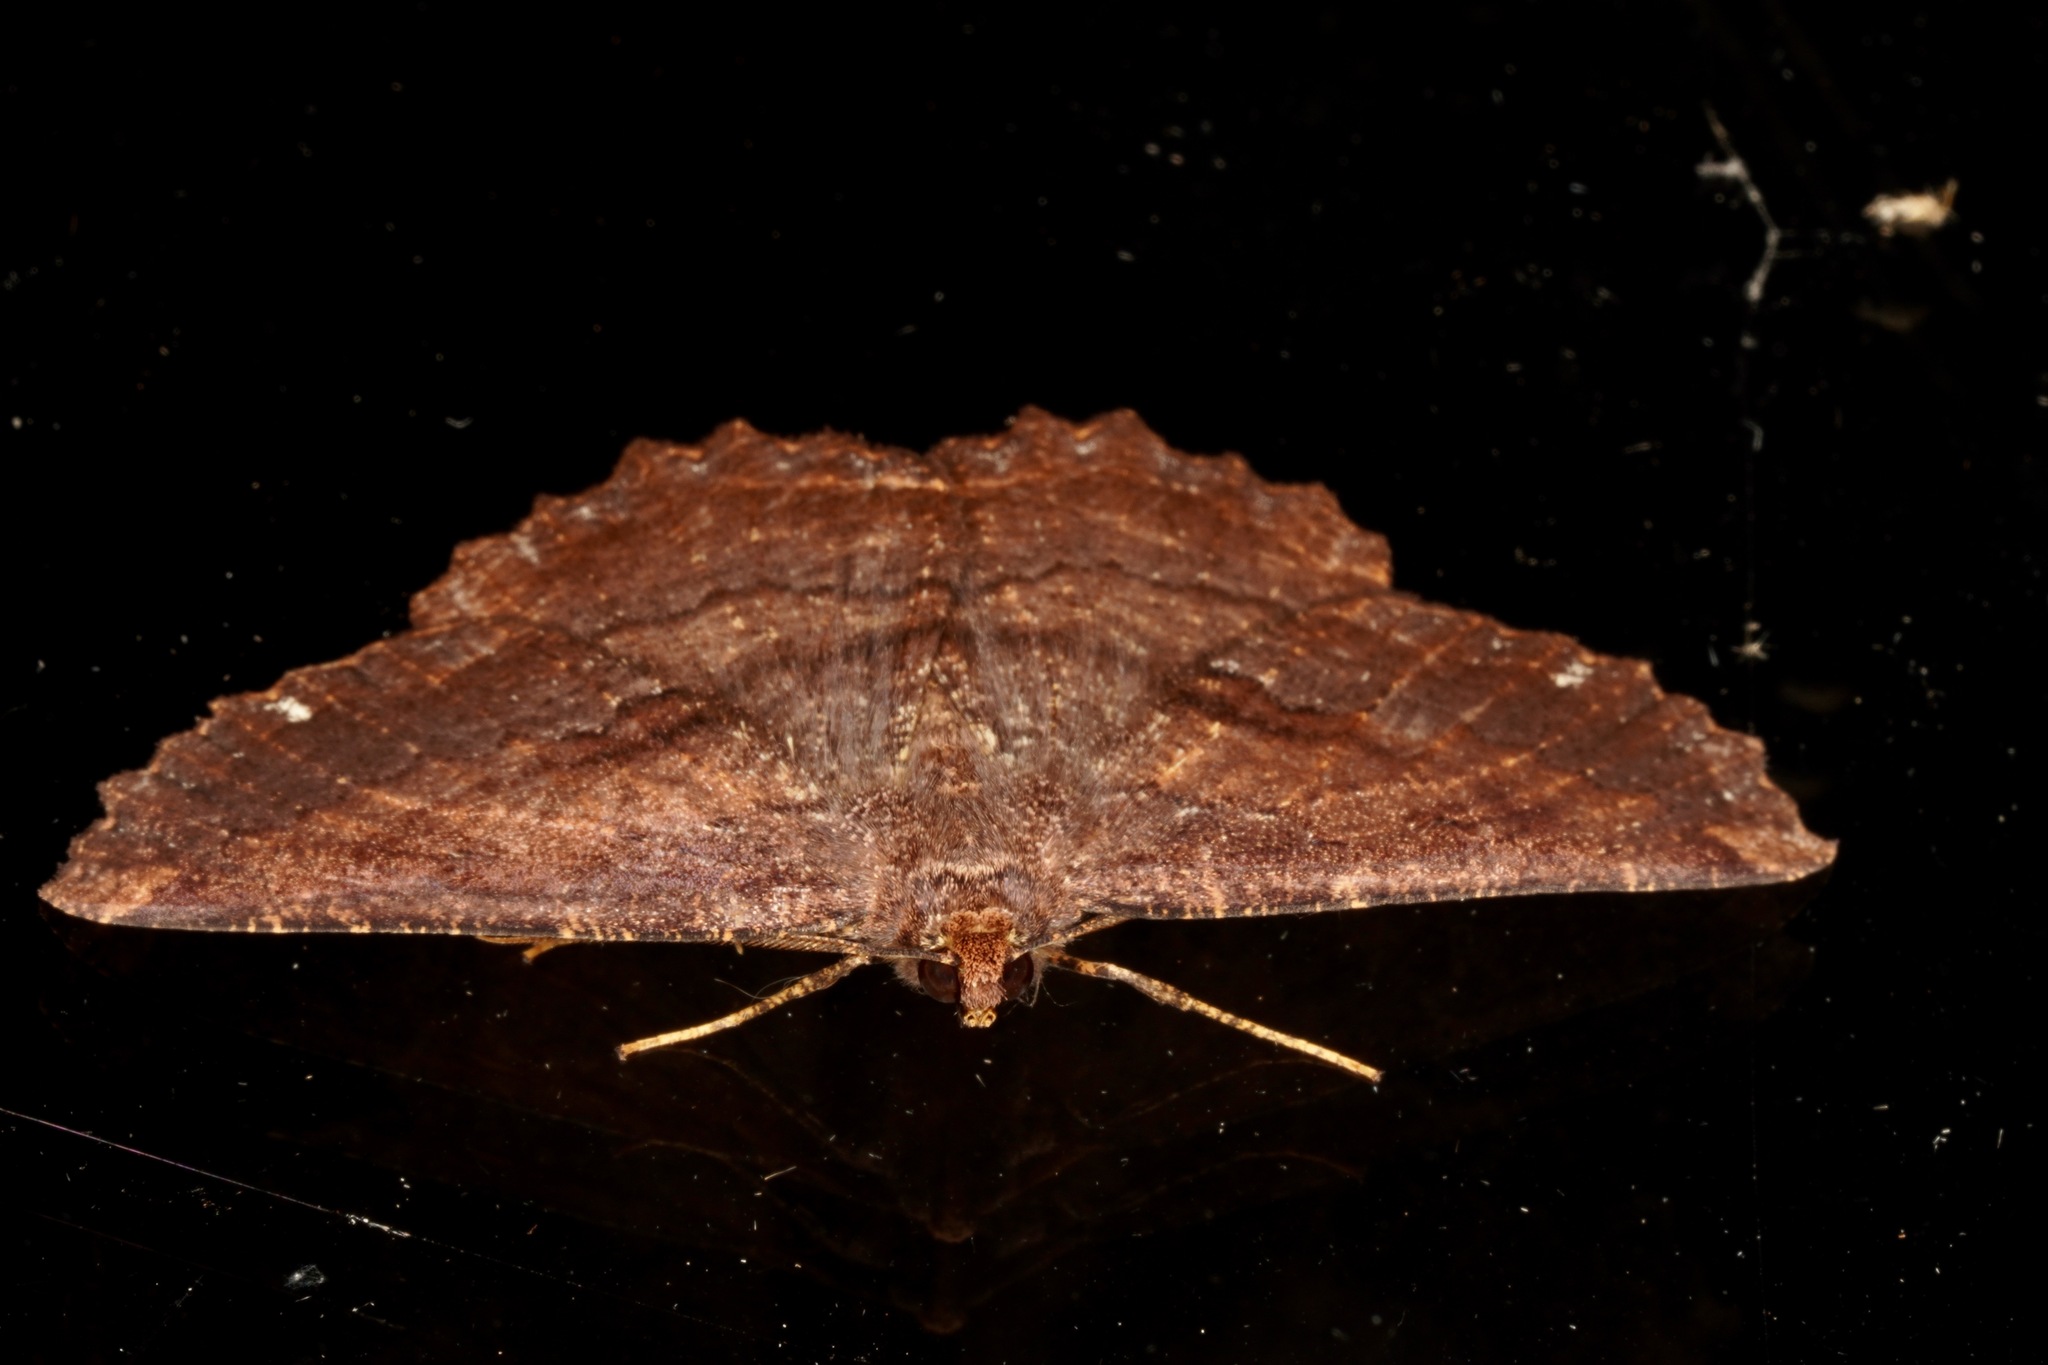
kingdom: Animalia
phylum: Arthropoda
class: Insecta
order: Lepidoptera
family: Geometridae
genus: Gellonia
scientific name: Gellonia dejectaria
